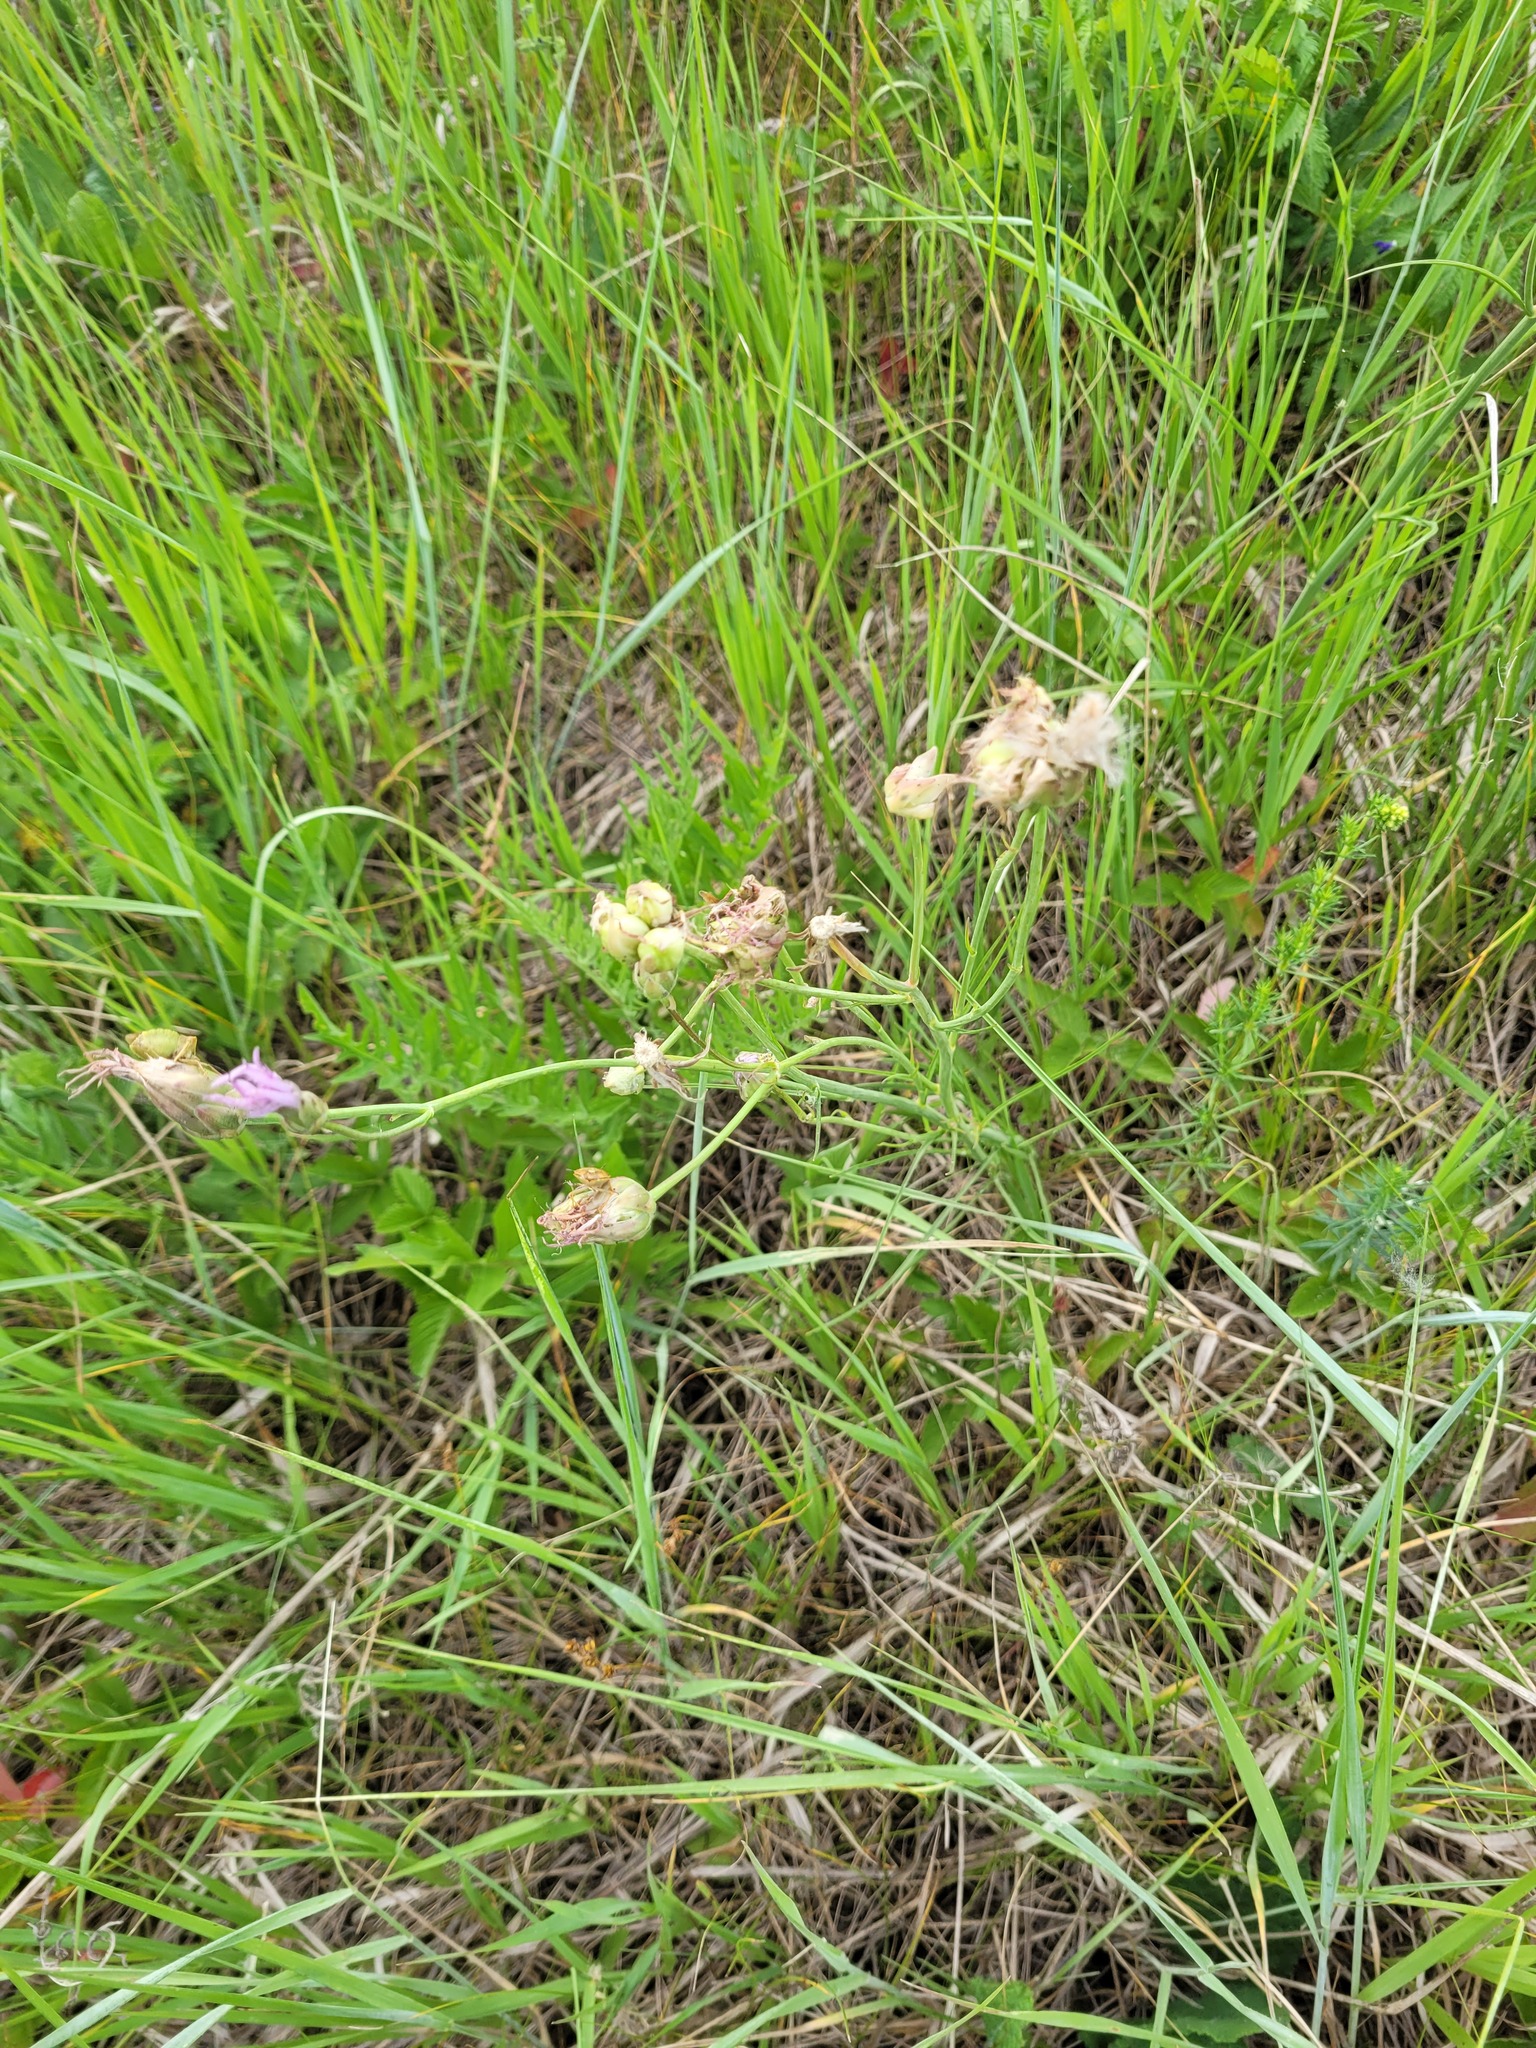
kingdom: Plantae
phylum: Tracheophyta
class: Magnoliopsida
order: Asterales
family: Asteraceae
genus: Scorzonera
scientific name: Scorzonera purpurea
